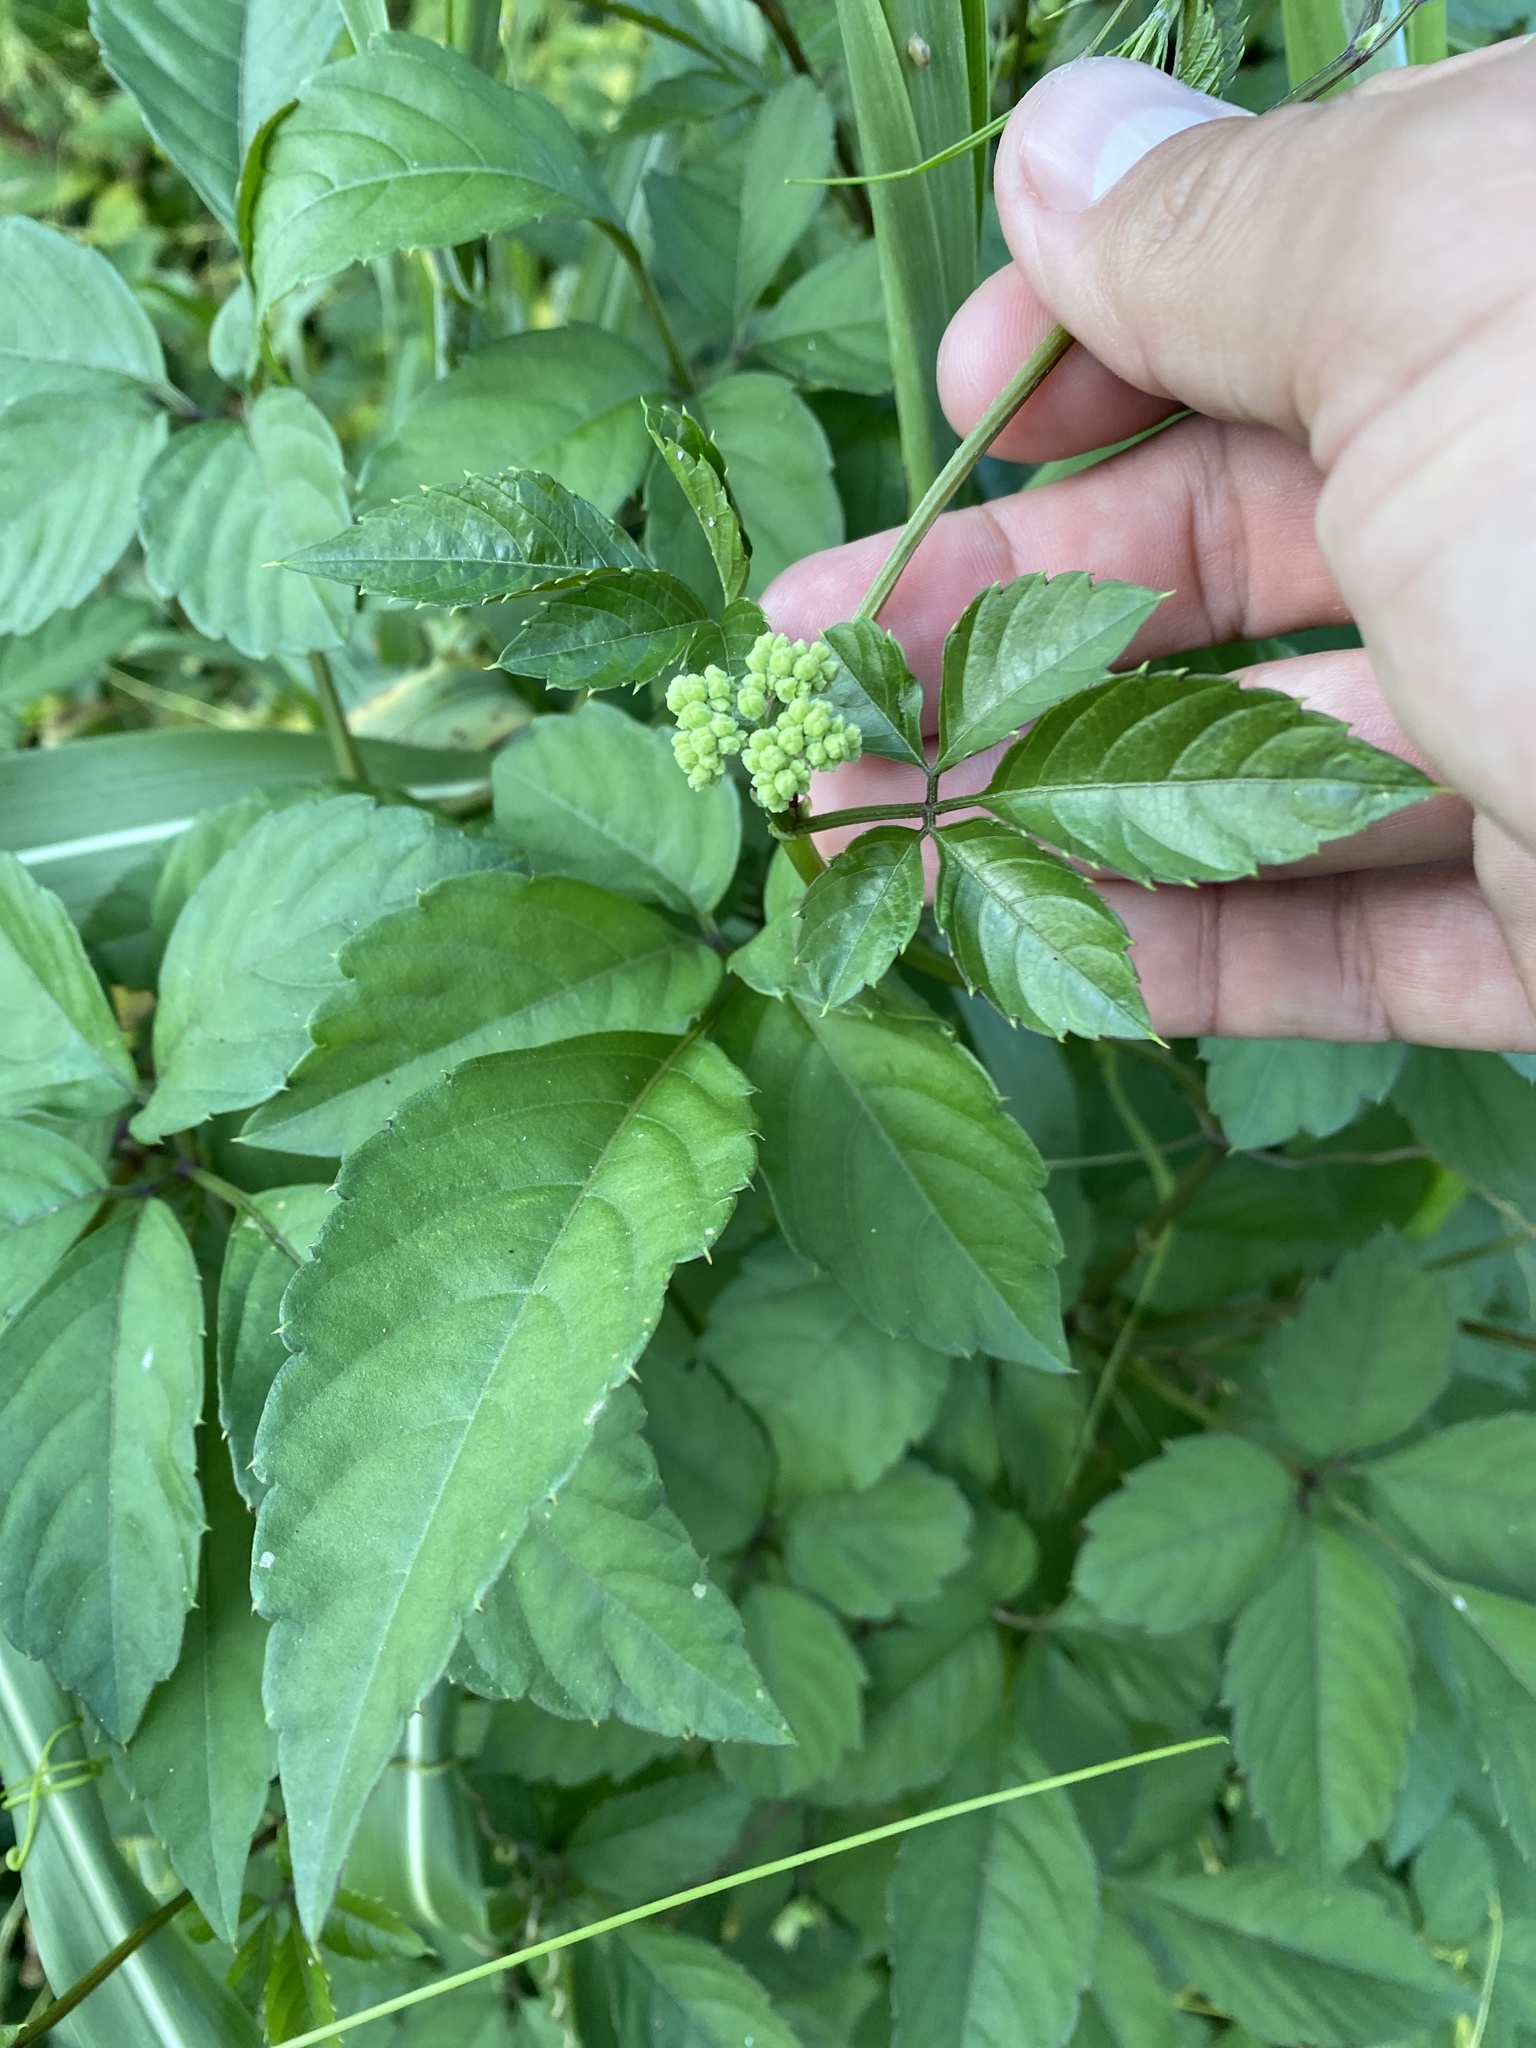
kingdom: Plantae
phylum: Tracheophyta
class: Magnoliopsida
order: Vitales
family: Vitaceae
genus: Causonis
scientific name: Causonis japonica
